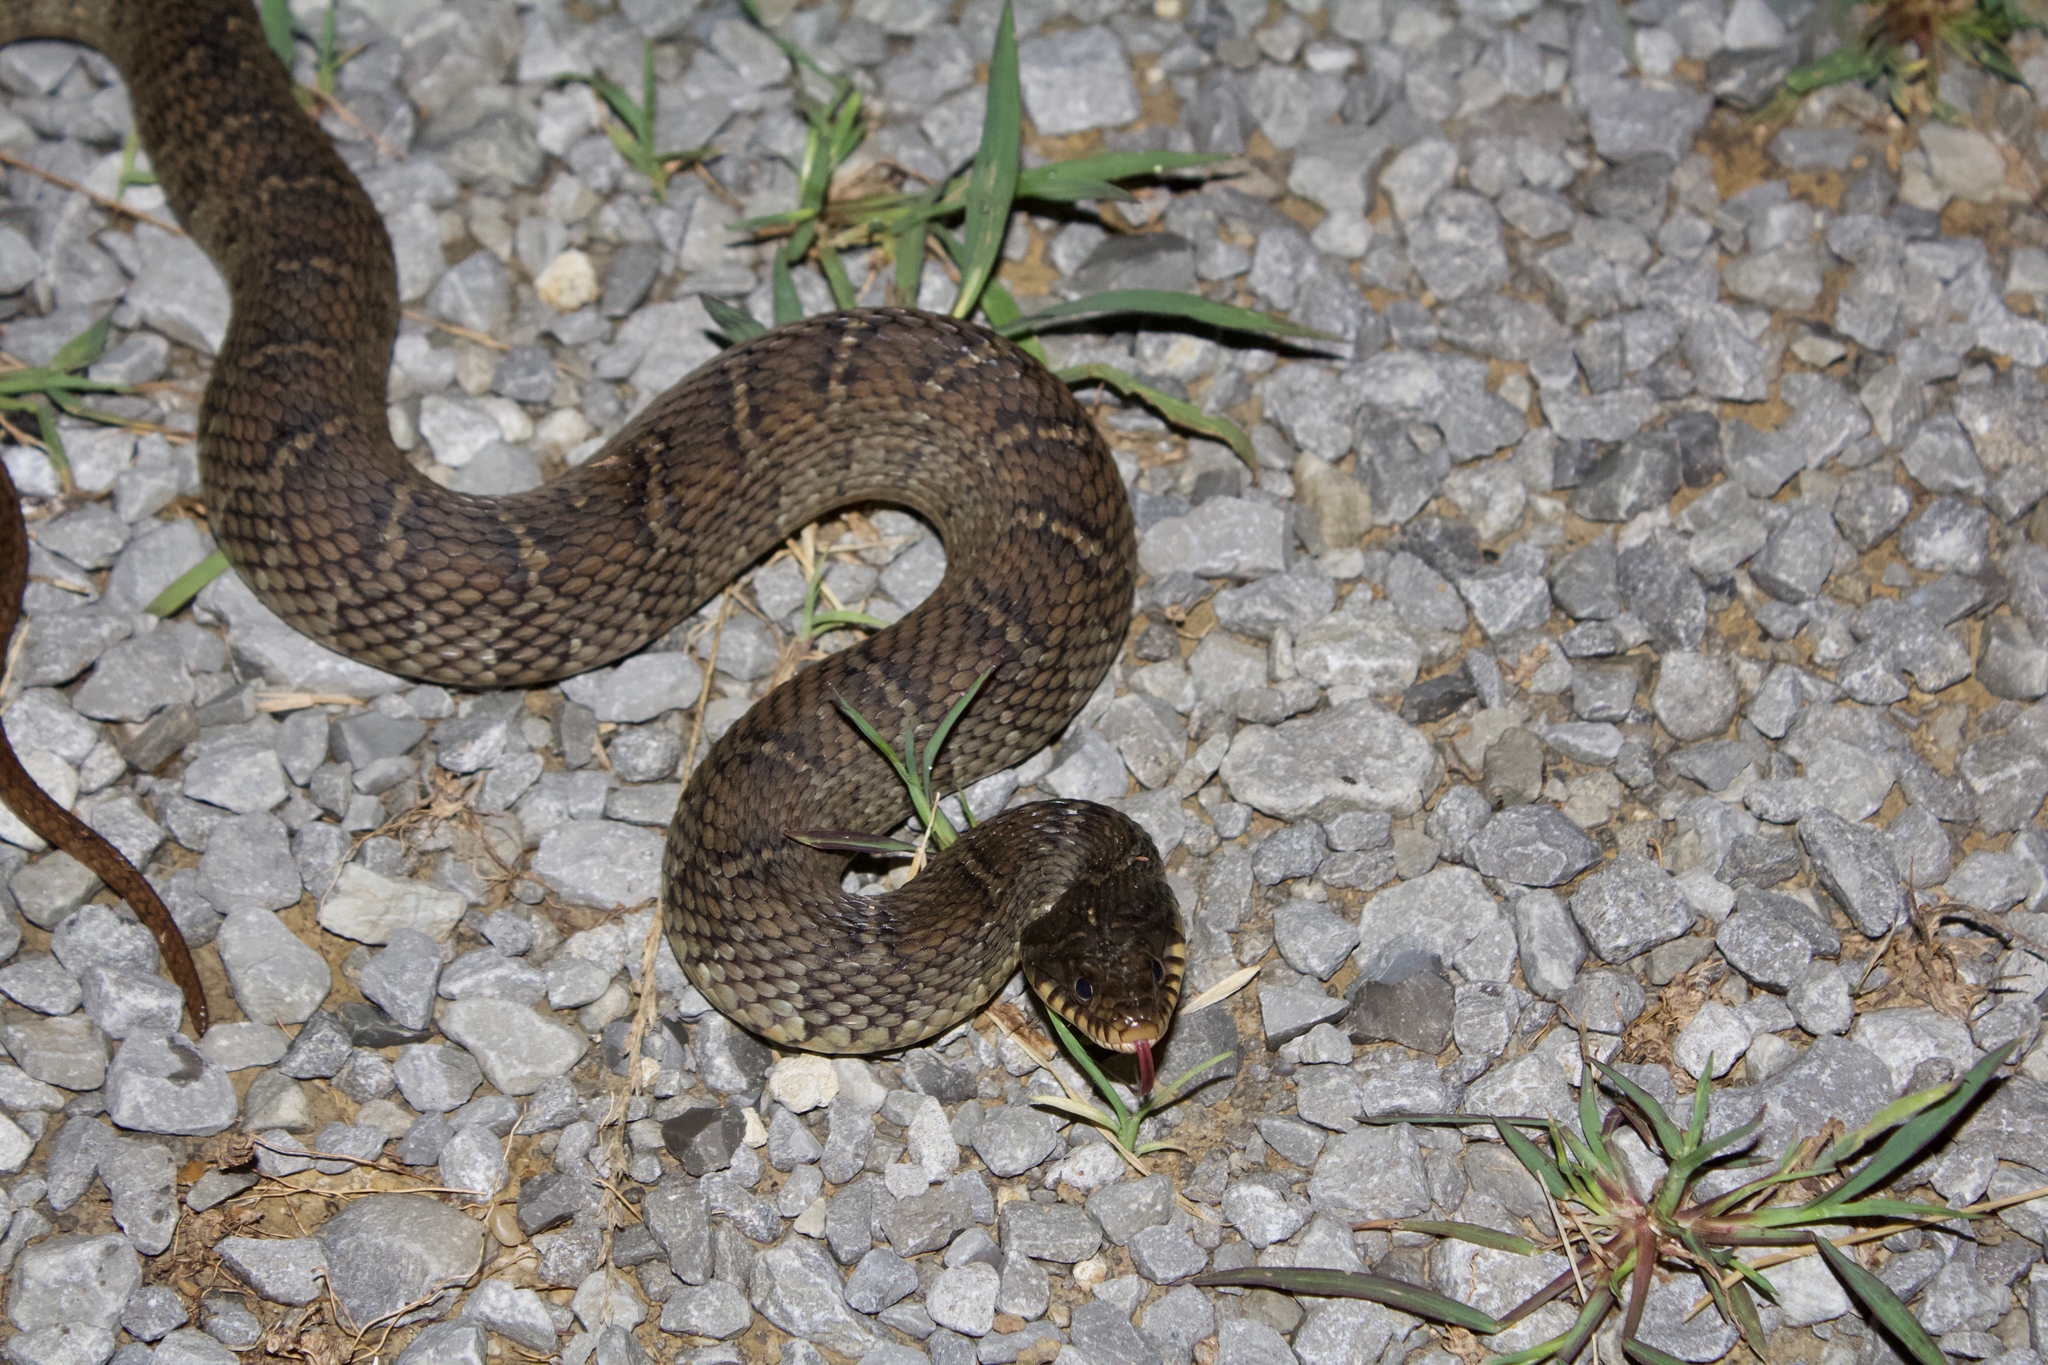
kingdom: Animalia
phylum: Chordata
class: Squamata
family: Colubridae
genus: Nerodia
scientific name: Nerodia erythrogaster
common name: Plainbelly water snake
